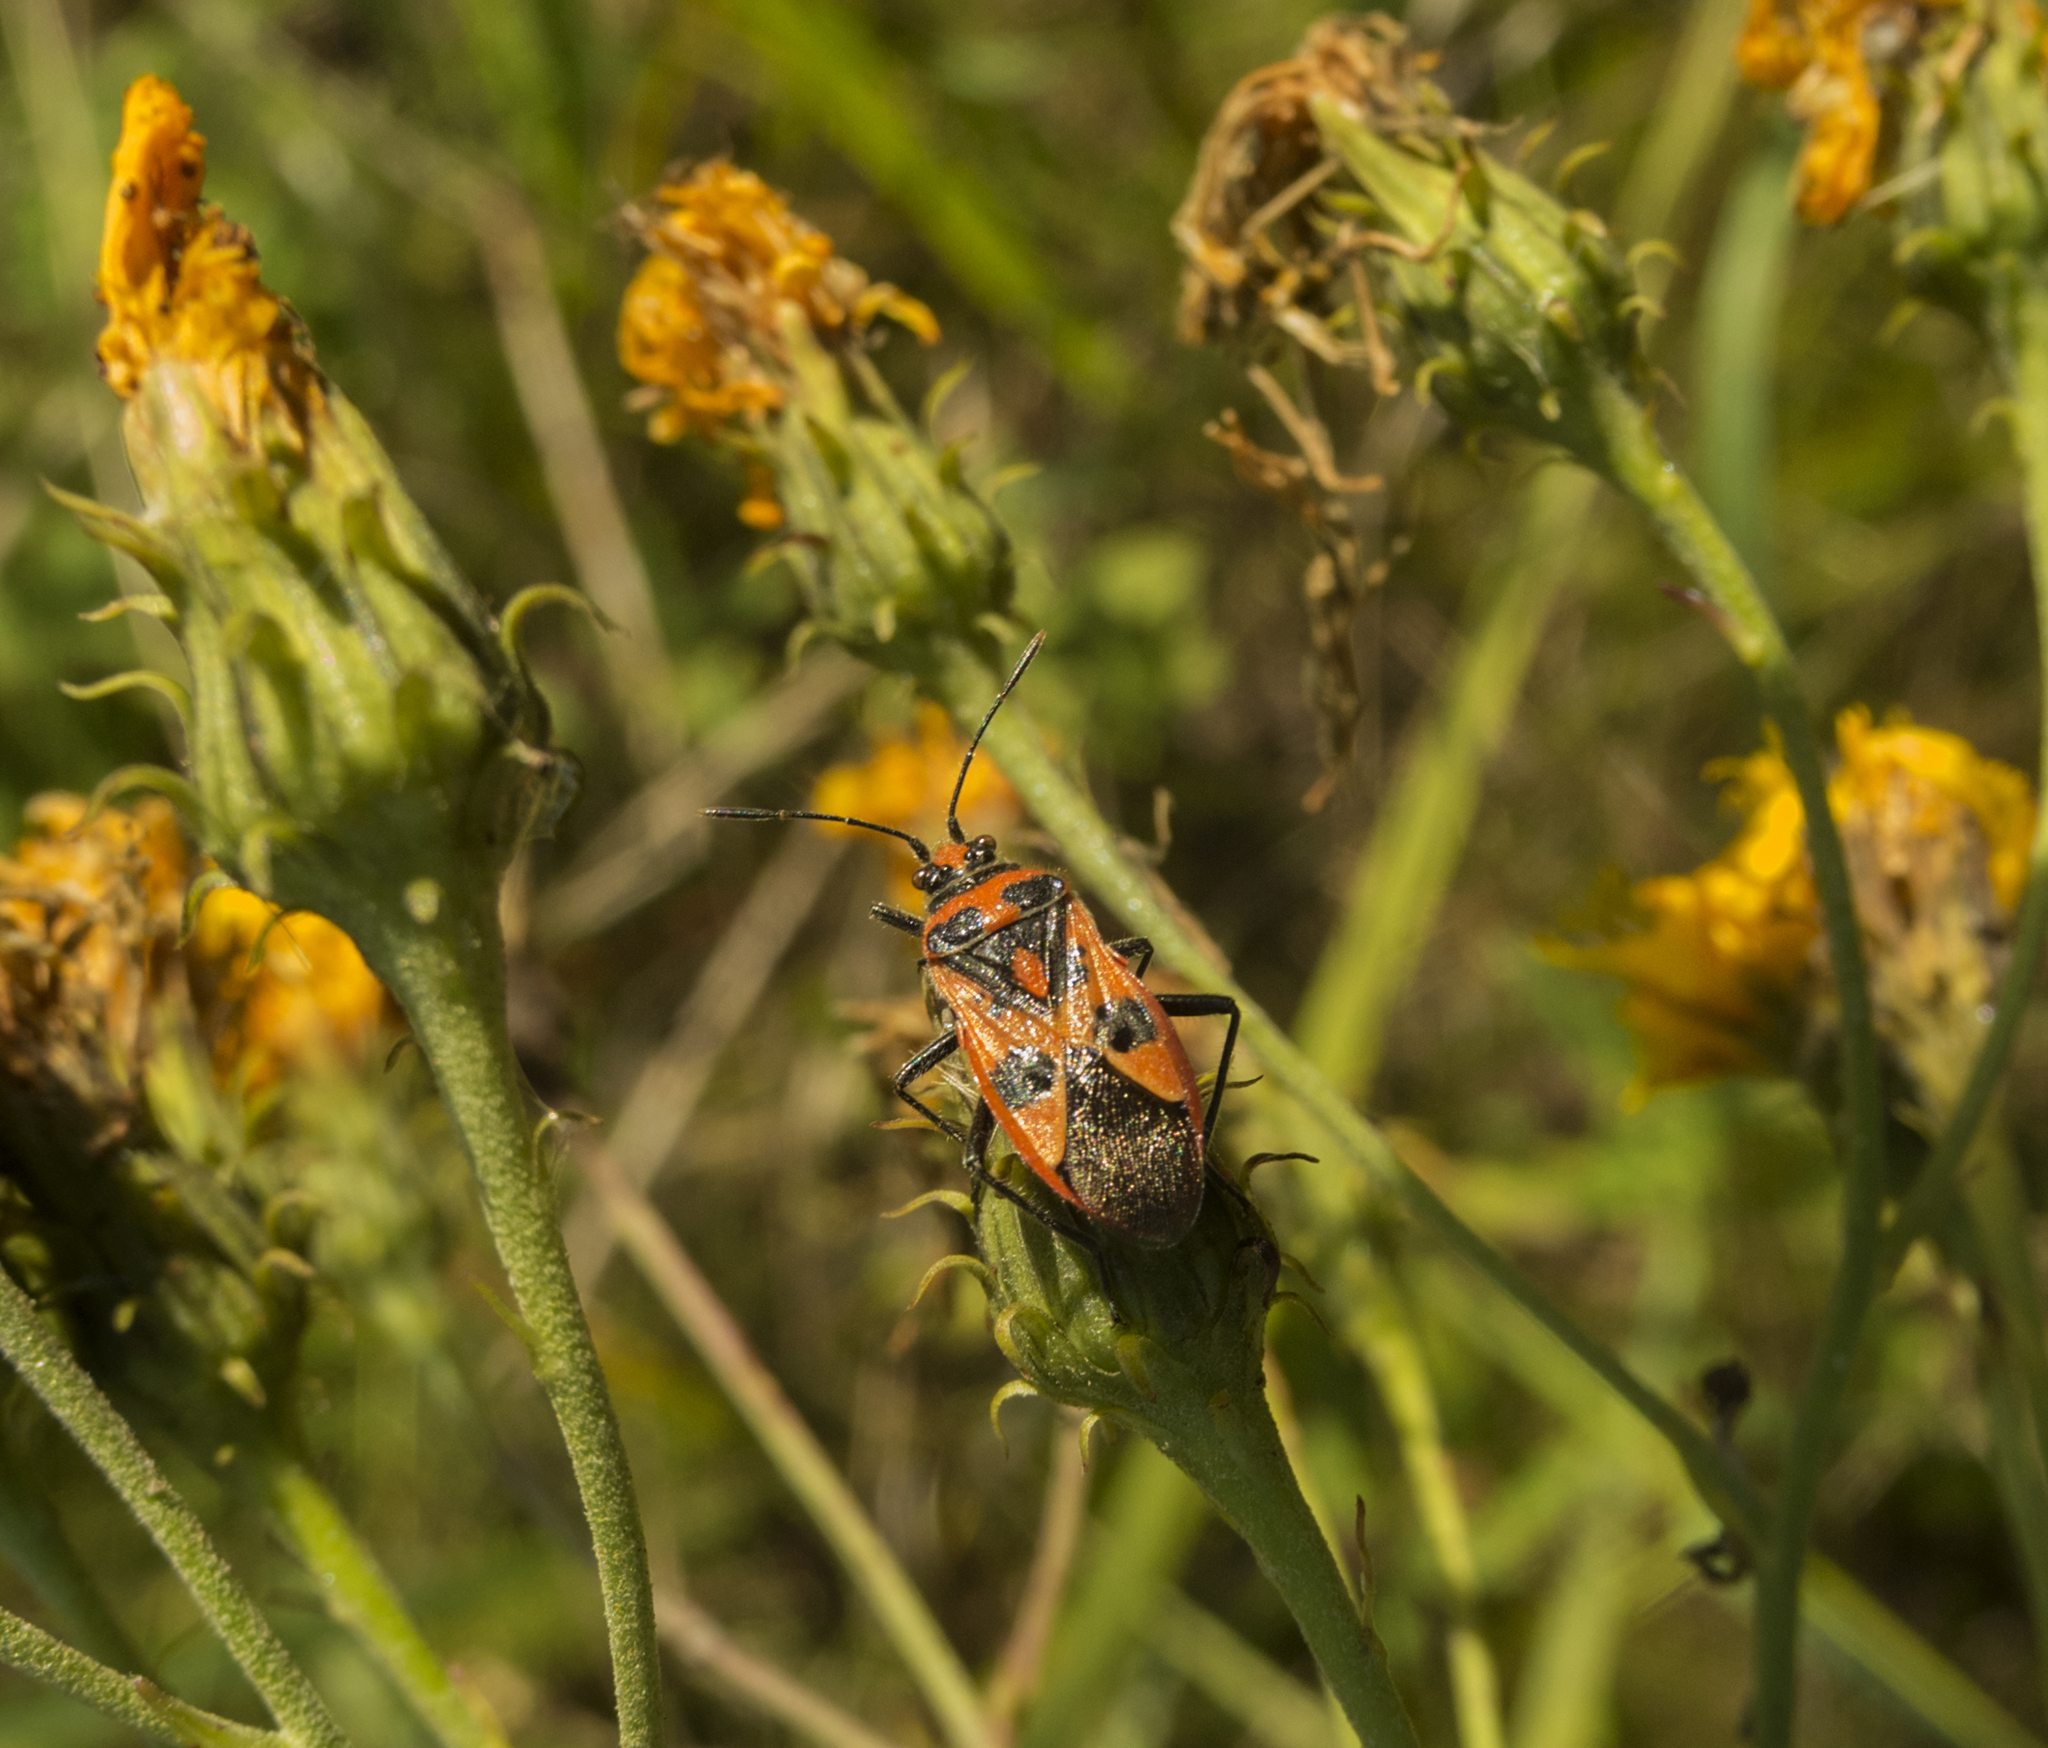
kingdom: Animalia
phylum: Arthropoda
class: Insecta
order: Hemiptera
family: Rhopalidae
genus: Corizus
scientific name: Corizus hyoscyami
